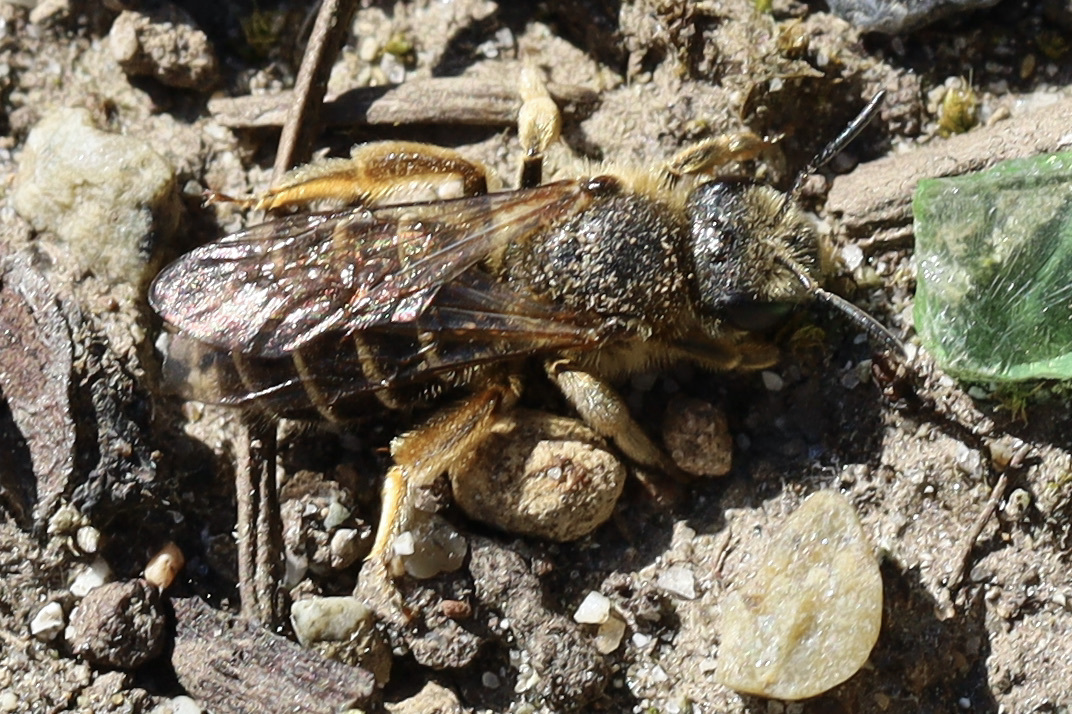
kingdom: Animalia
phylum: Arthropoda
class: Insecta
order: Hymenoptera
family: Halictidae
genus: Halictus
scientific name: Halictus rubicundus
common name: Orange-legged furrow bee
